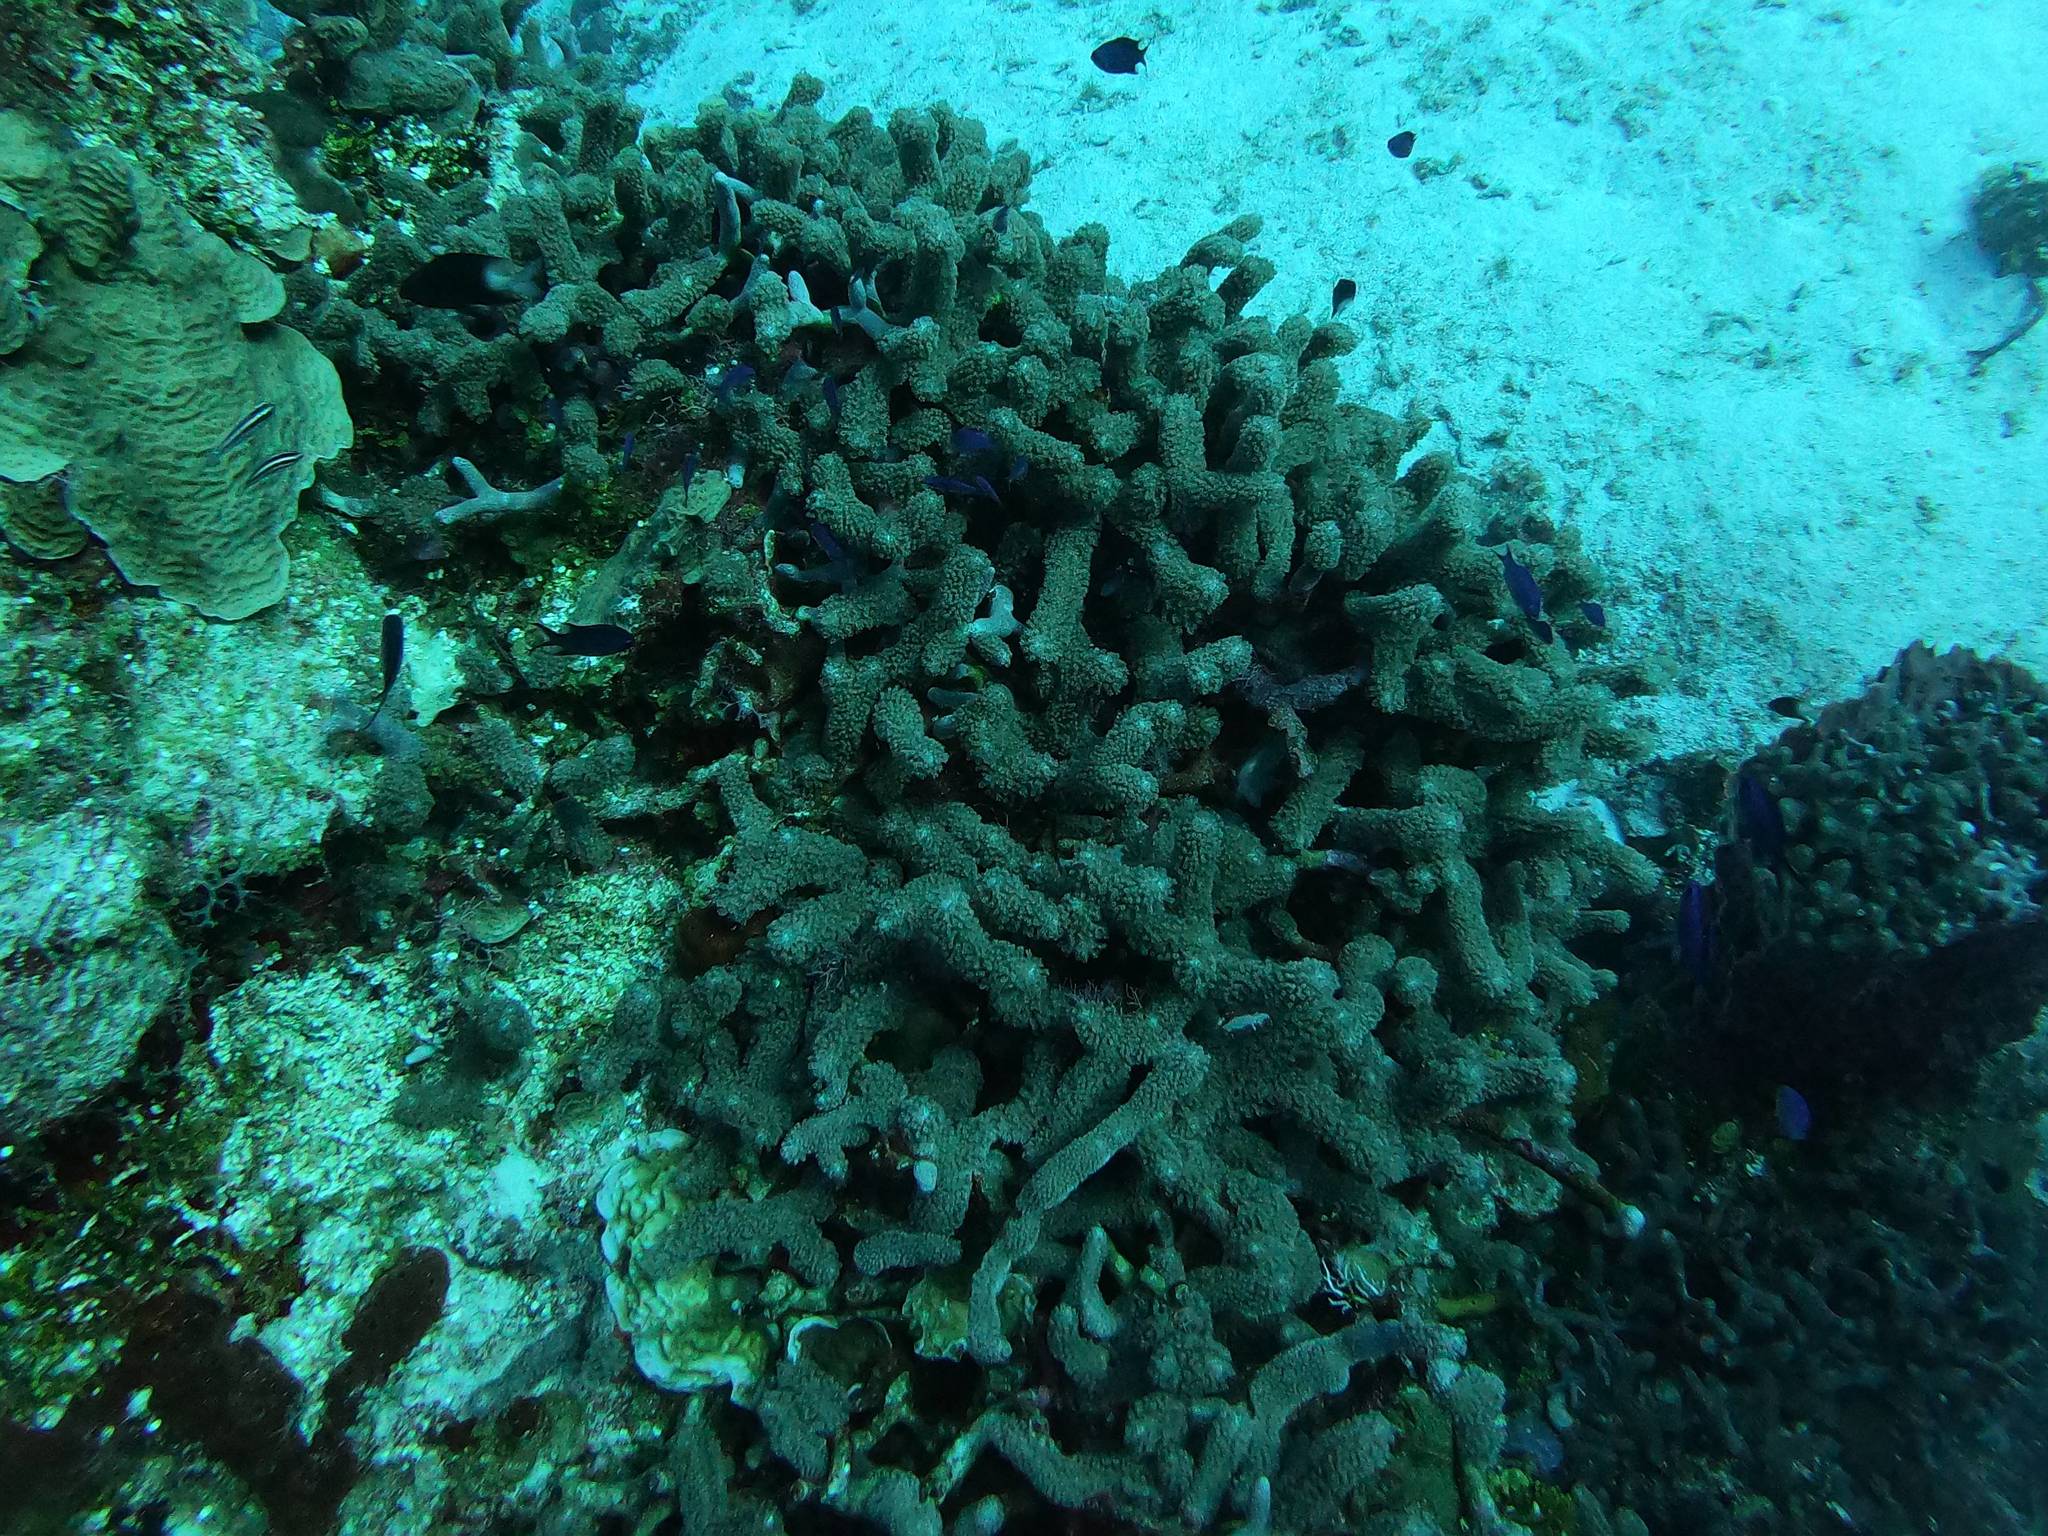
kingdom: Animalia
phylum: Cnidaria
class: Anthozoa
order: Scleractinia
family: Poritidae
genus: Porites
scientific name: Porites porites
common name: Finger coral
